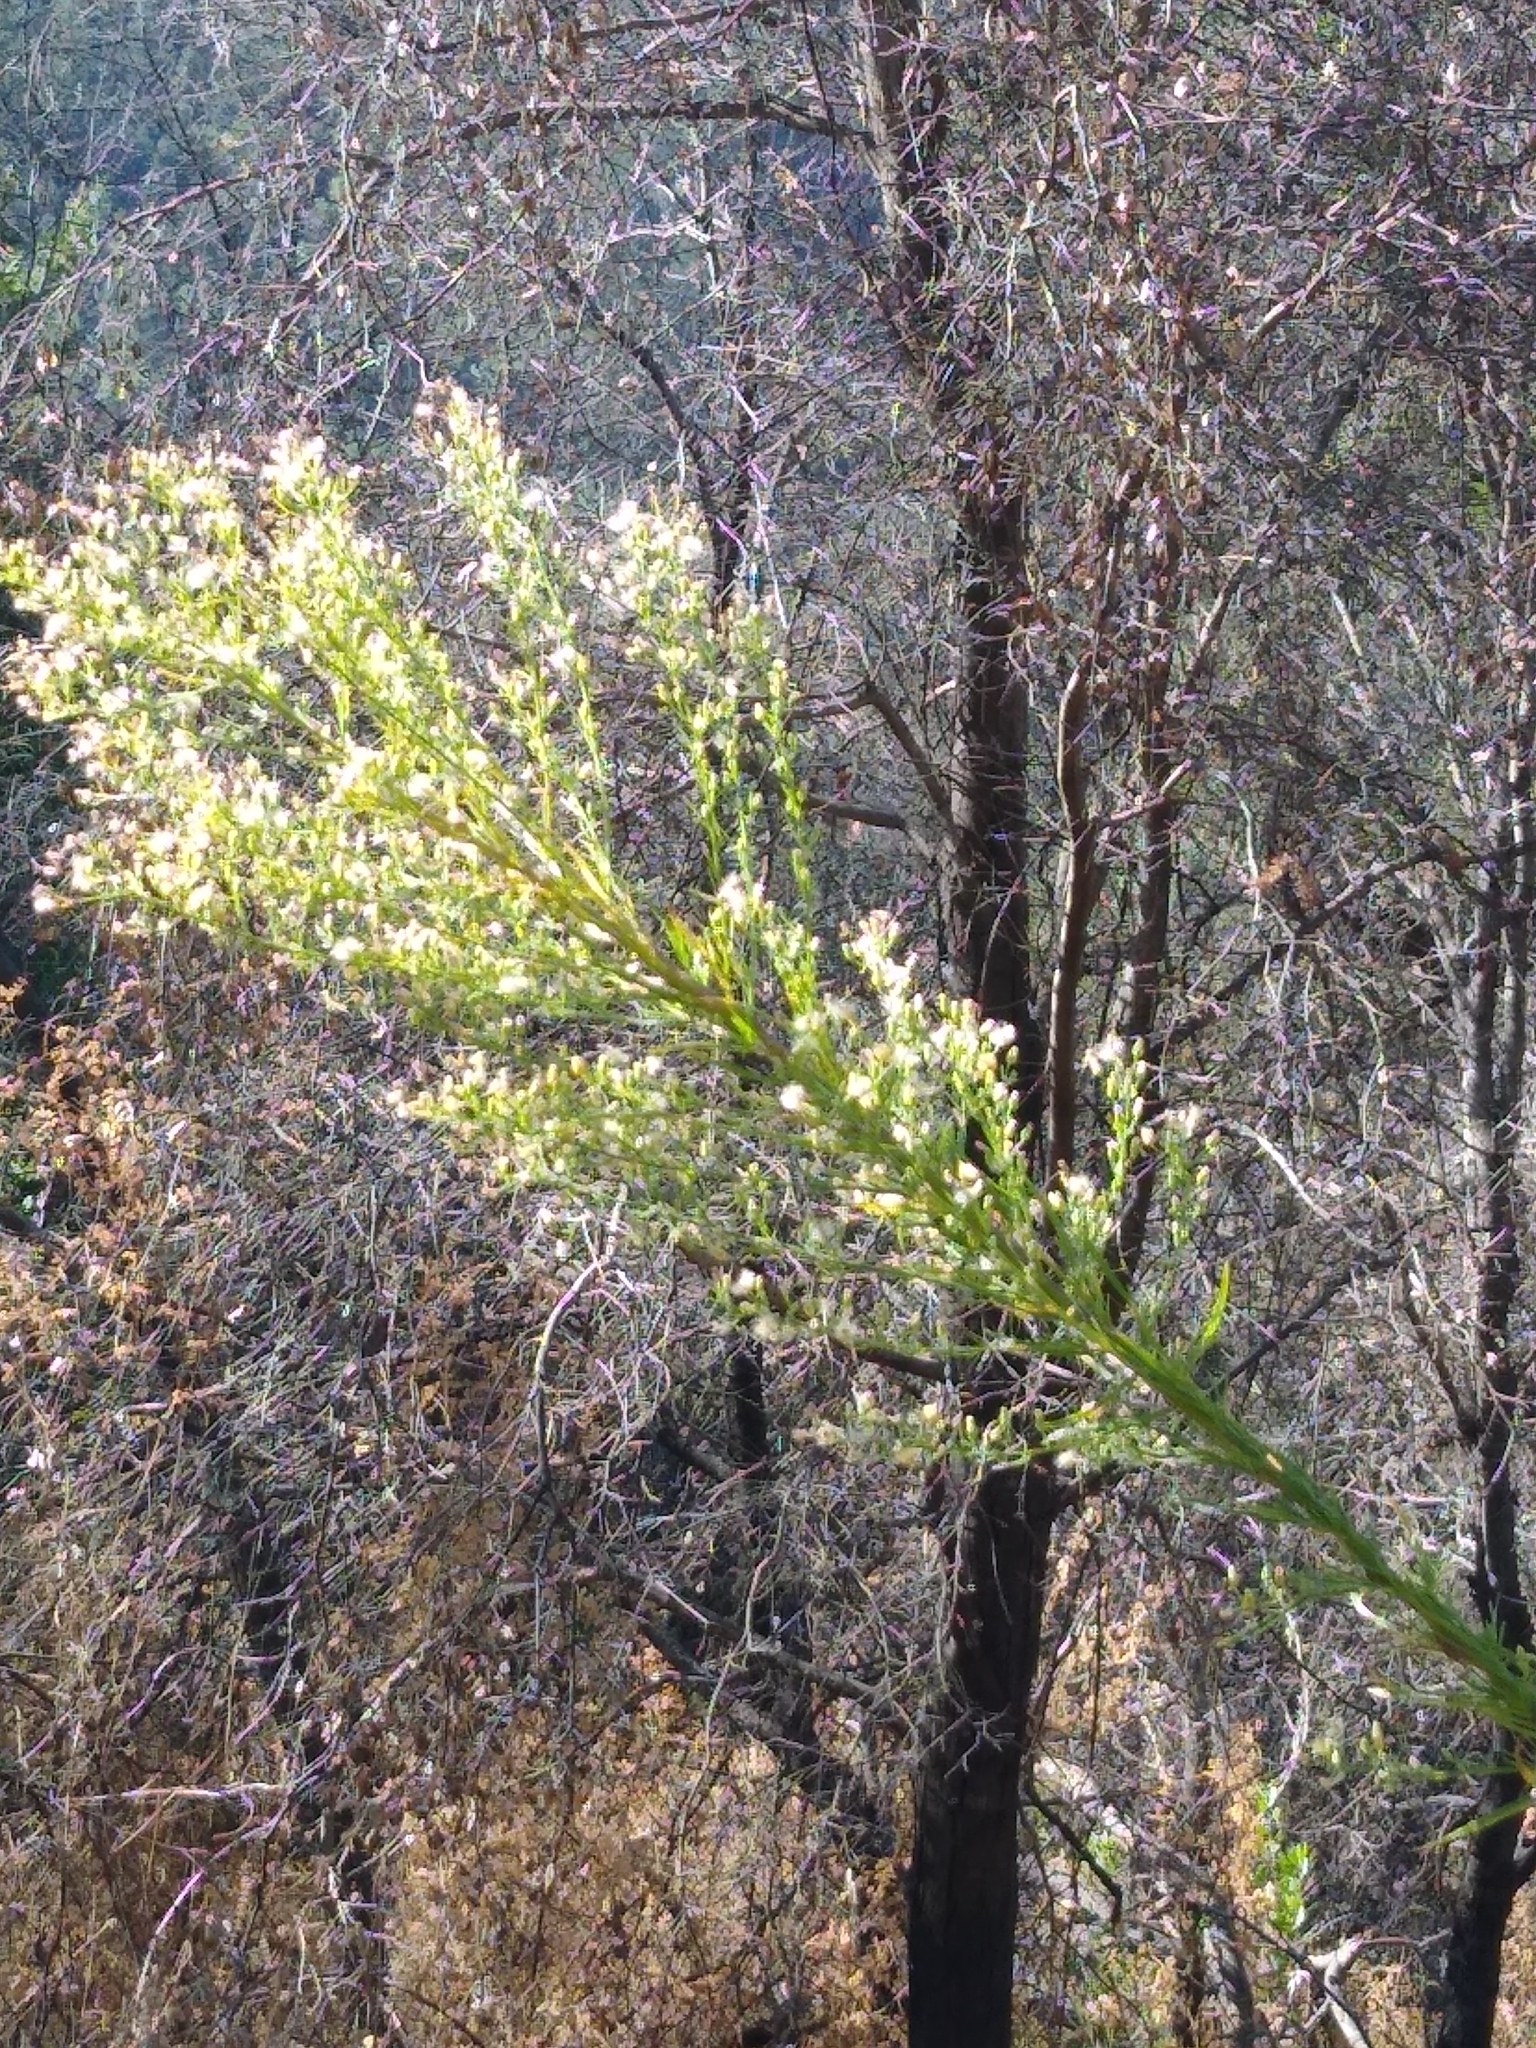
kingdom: Plantae
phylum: Tracheophyta
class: Magnoliopsida
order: Asterales
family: Asteraceae
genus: Erigeron
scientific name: Erigeron canadensis
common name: Canadian fleabane
